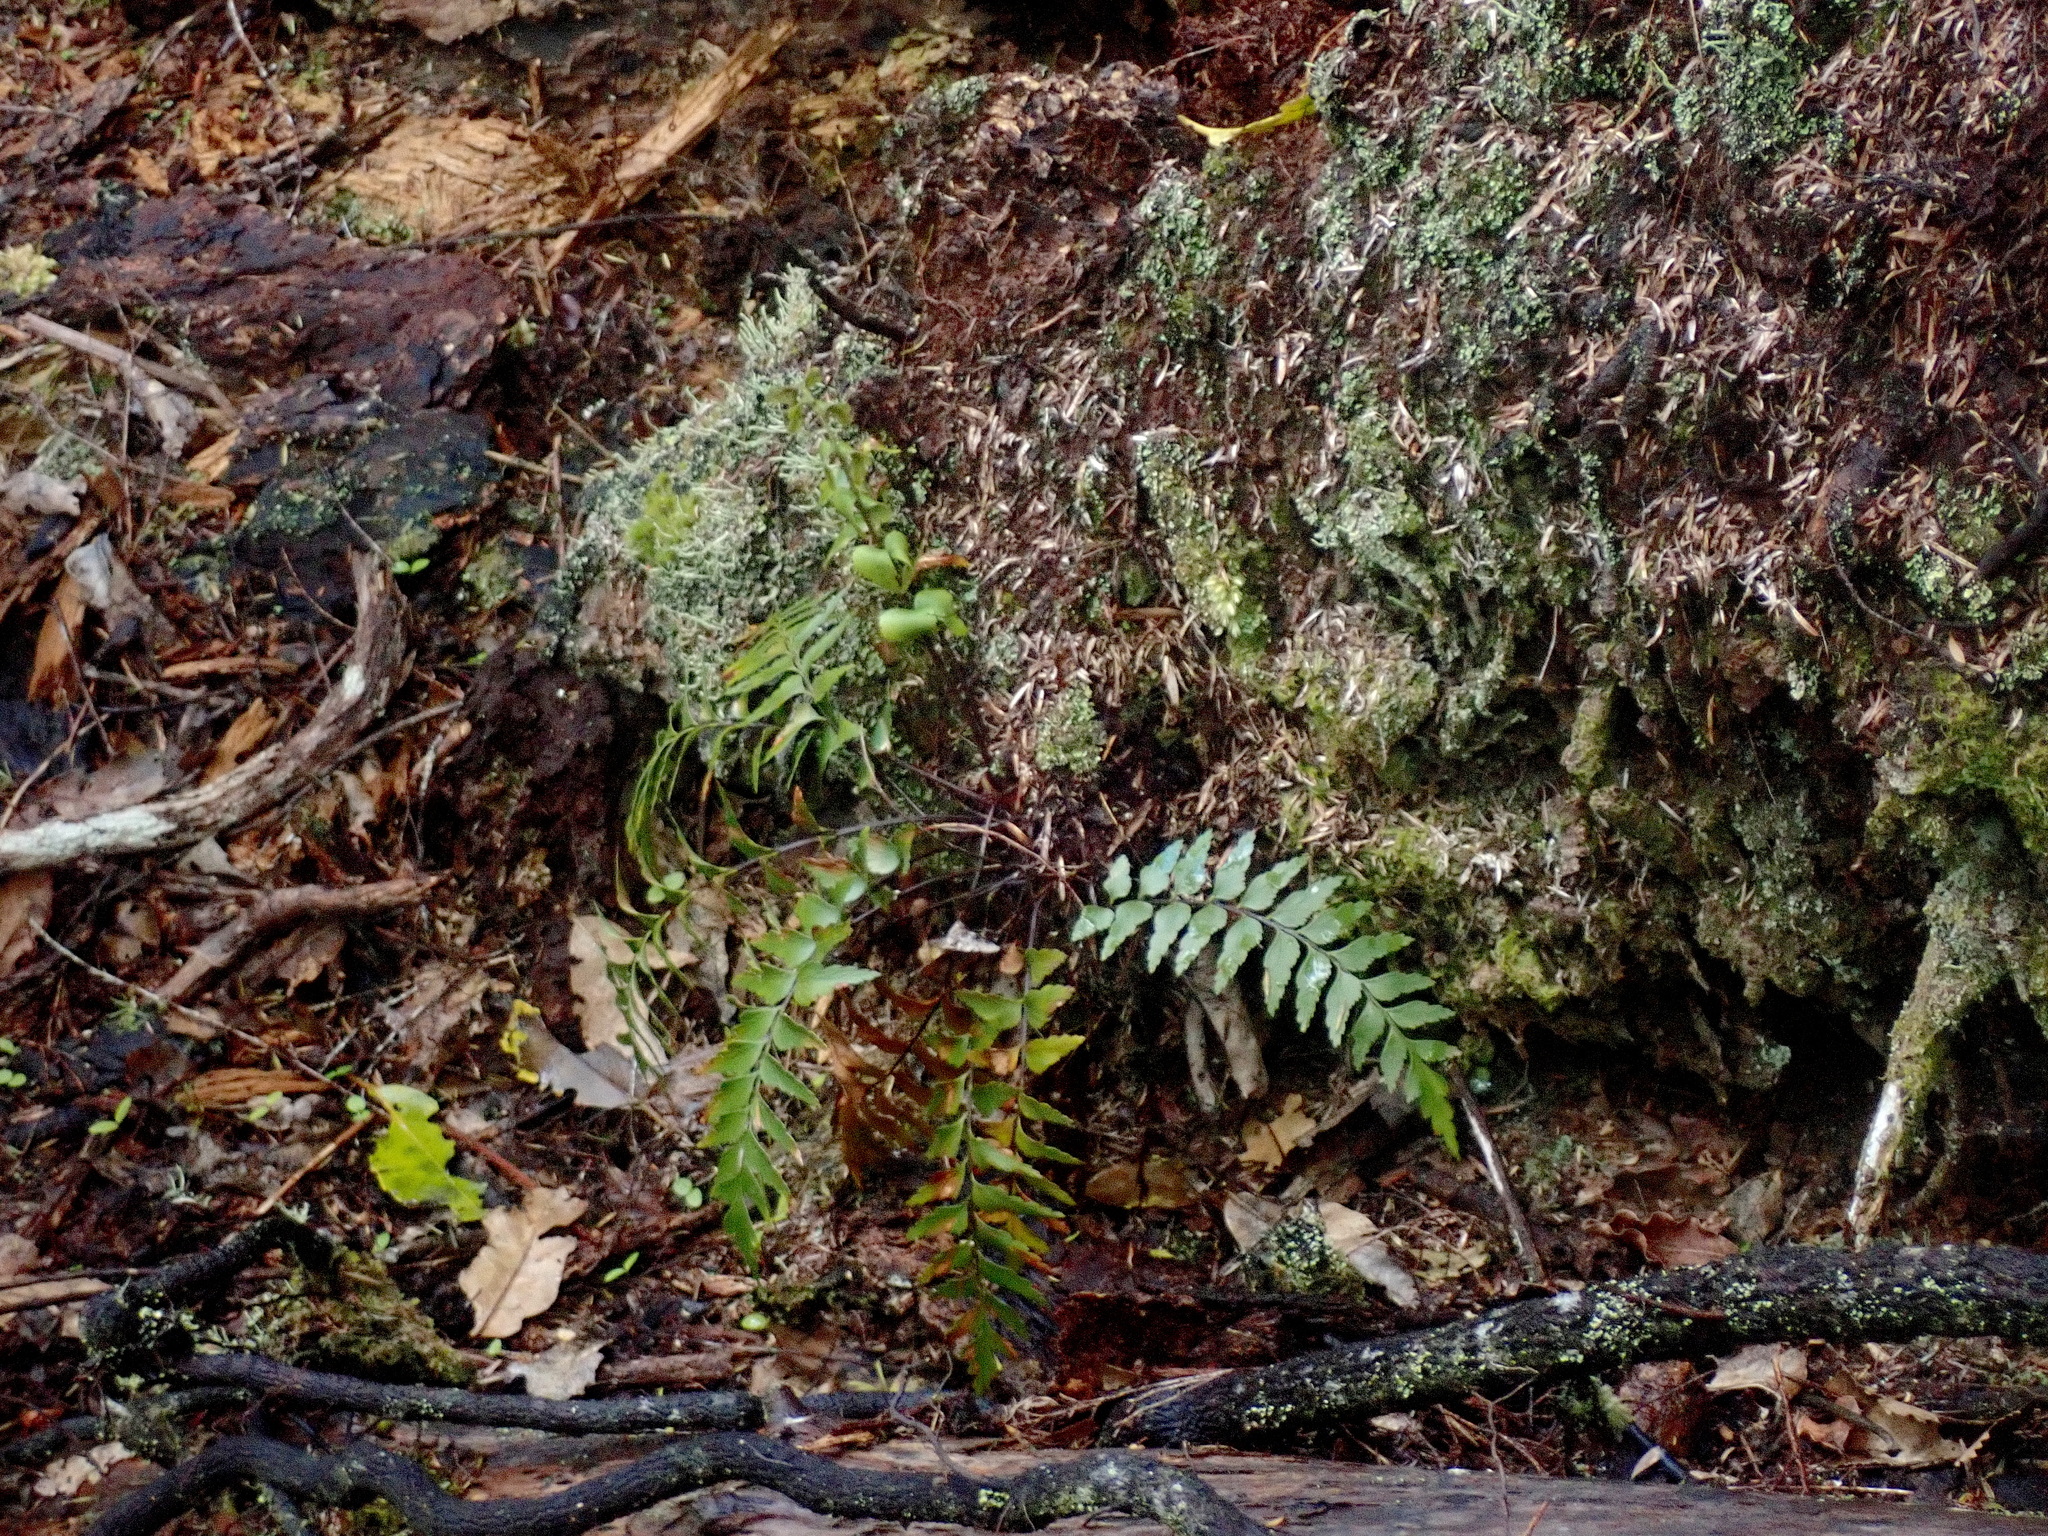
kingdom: Plantae
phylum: Tracheophyta
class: Polypodiopsida
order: Polypodiales
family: Aspleniaceae
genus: Asplenium
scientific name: Asplenium polyodon
